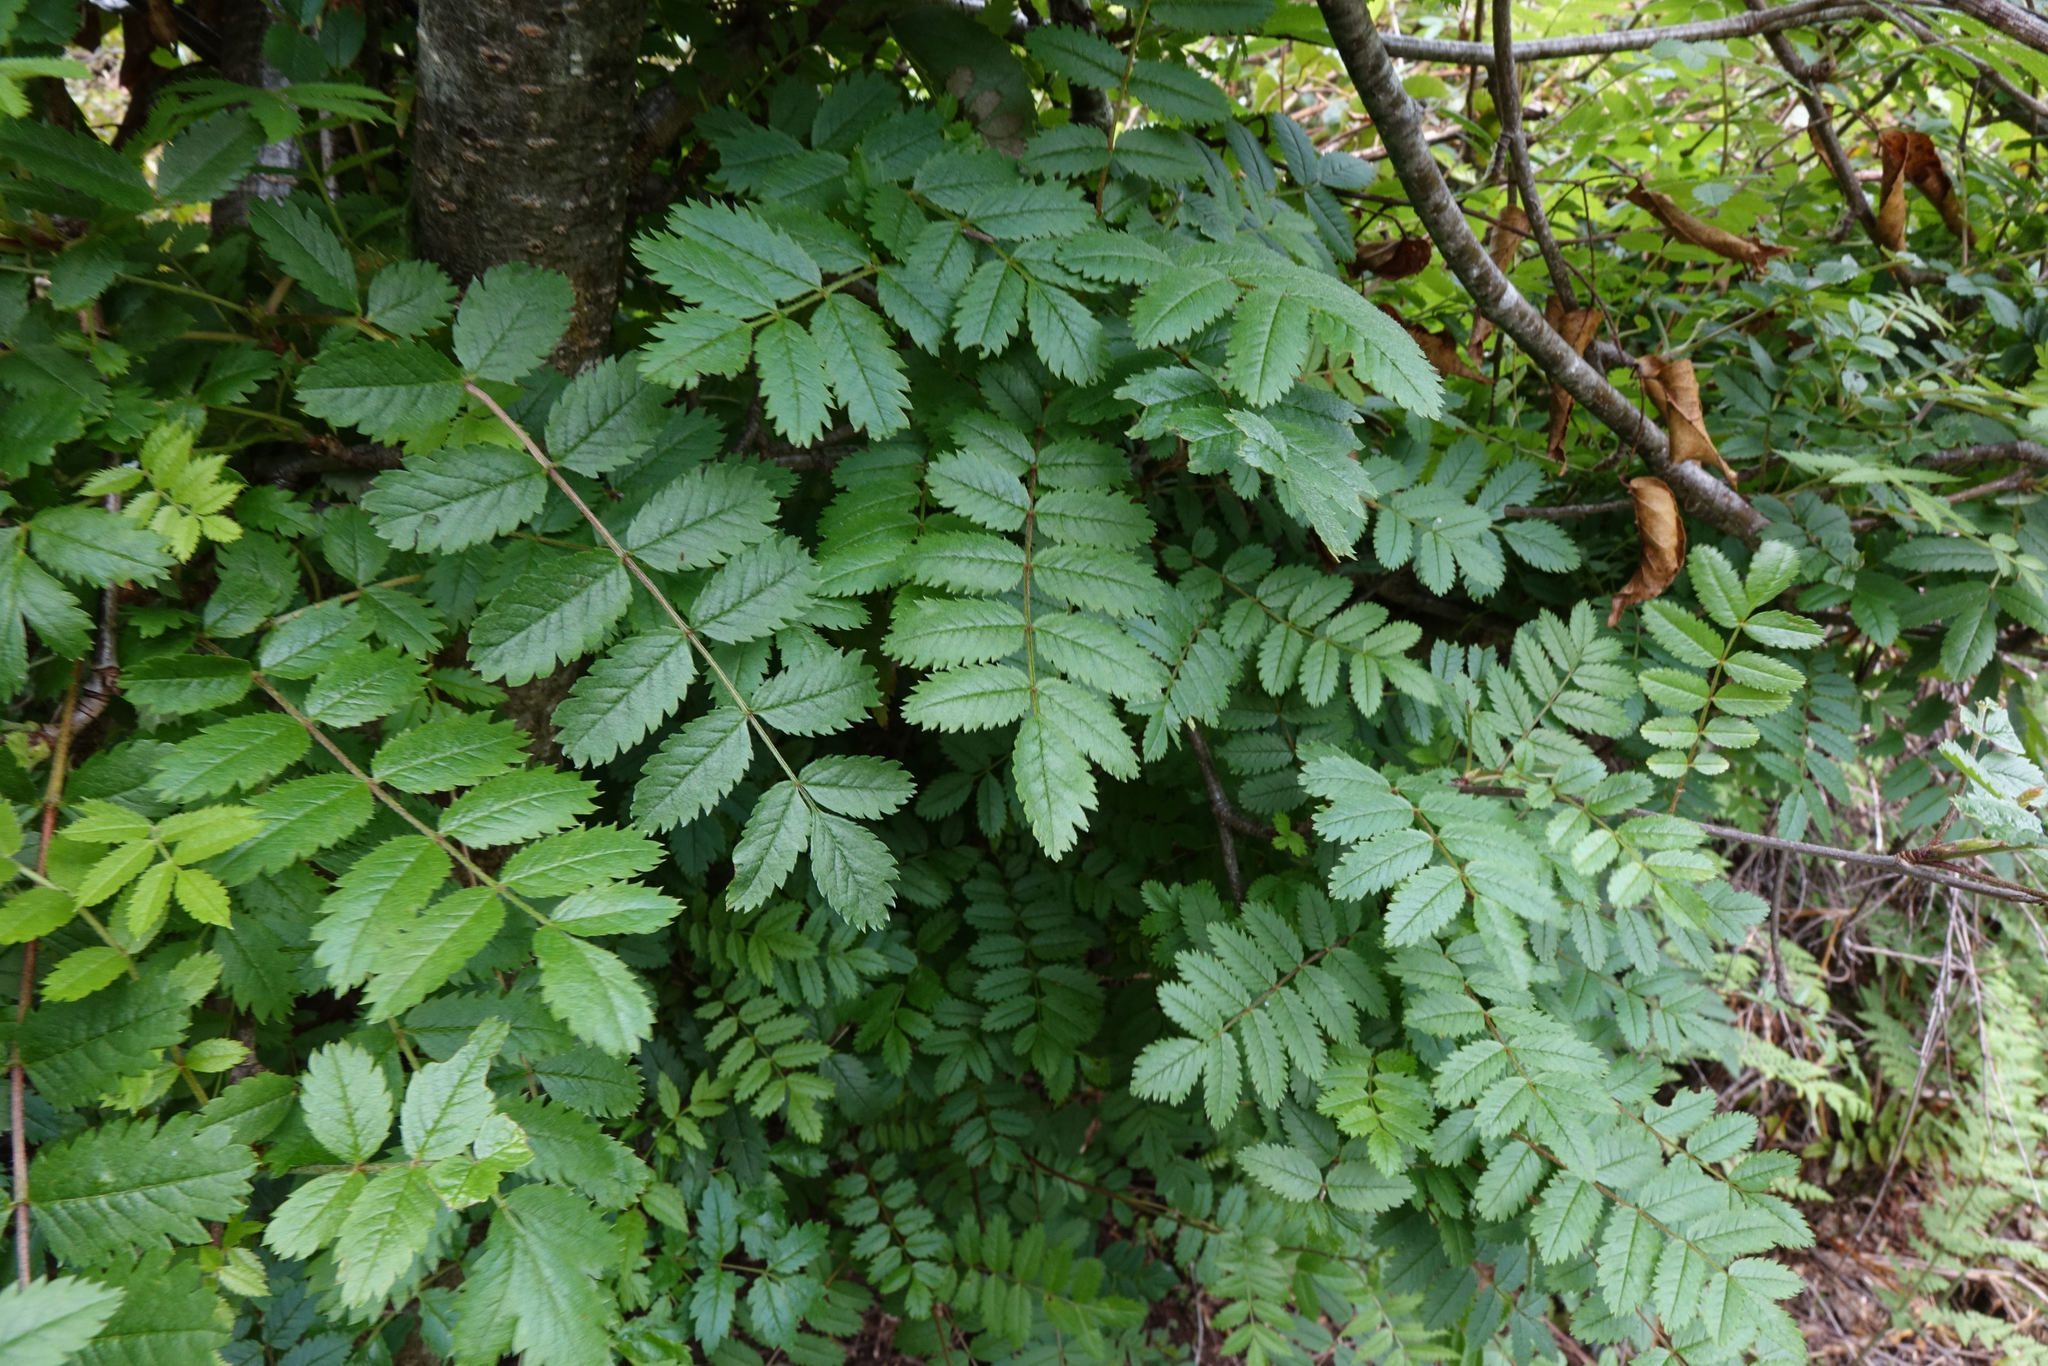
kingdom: Plantae
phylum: Tracheophyta
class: Magnoliopsida
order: Rosales
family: Rosaceae
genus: Sorbus
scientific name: Sorbus aucuparia
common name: Rowan
